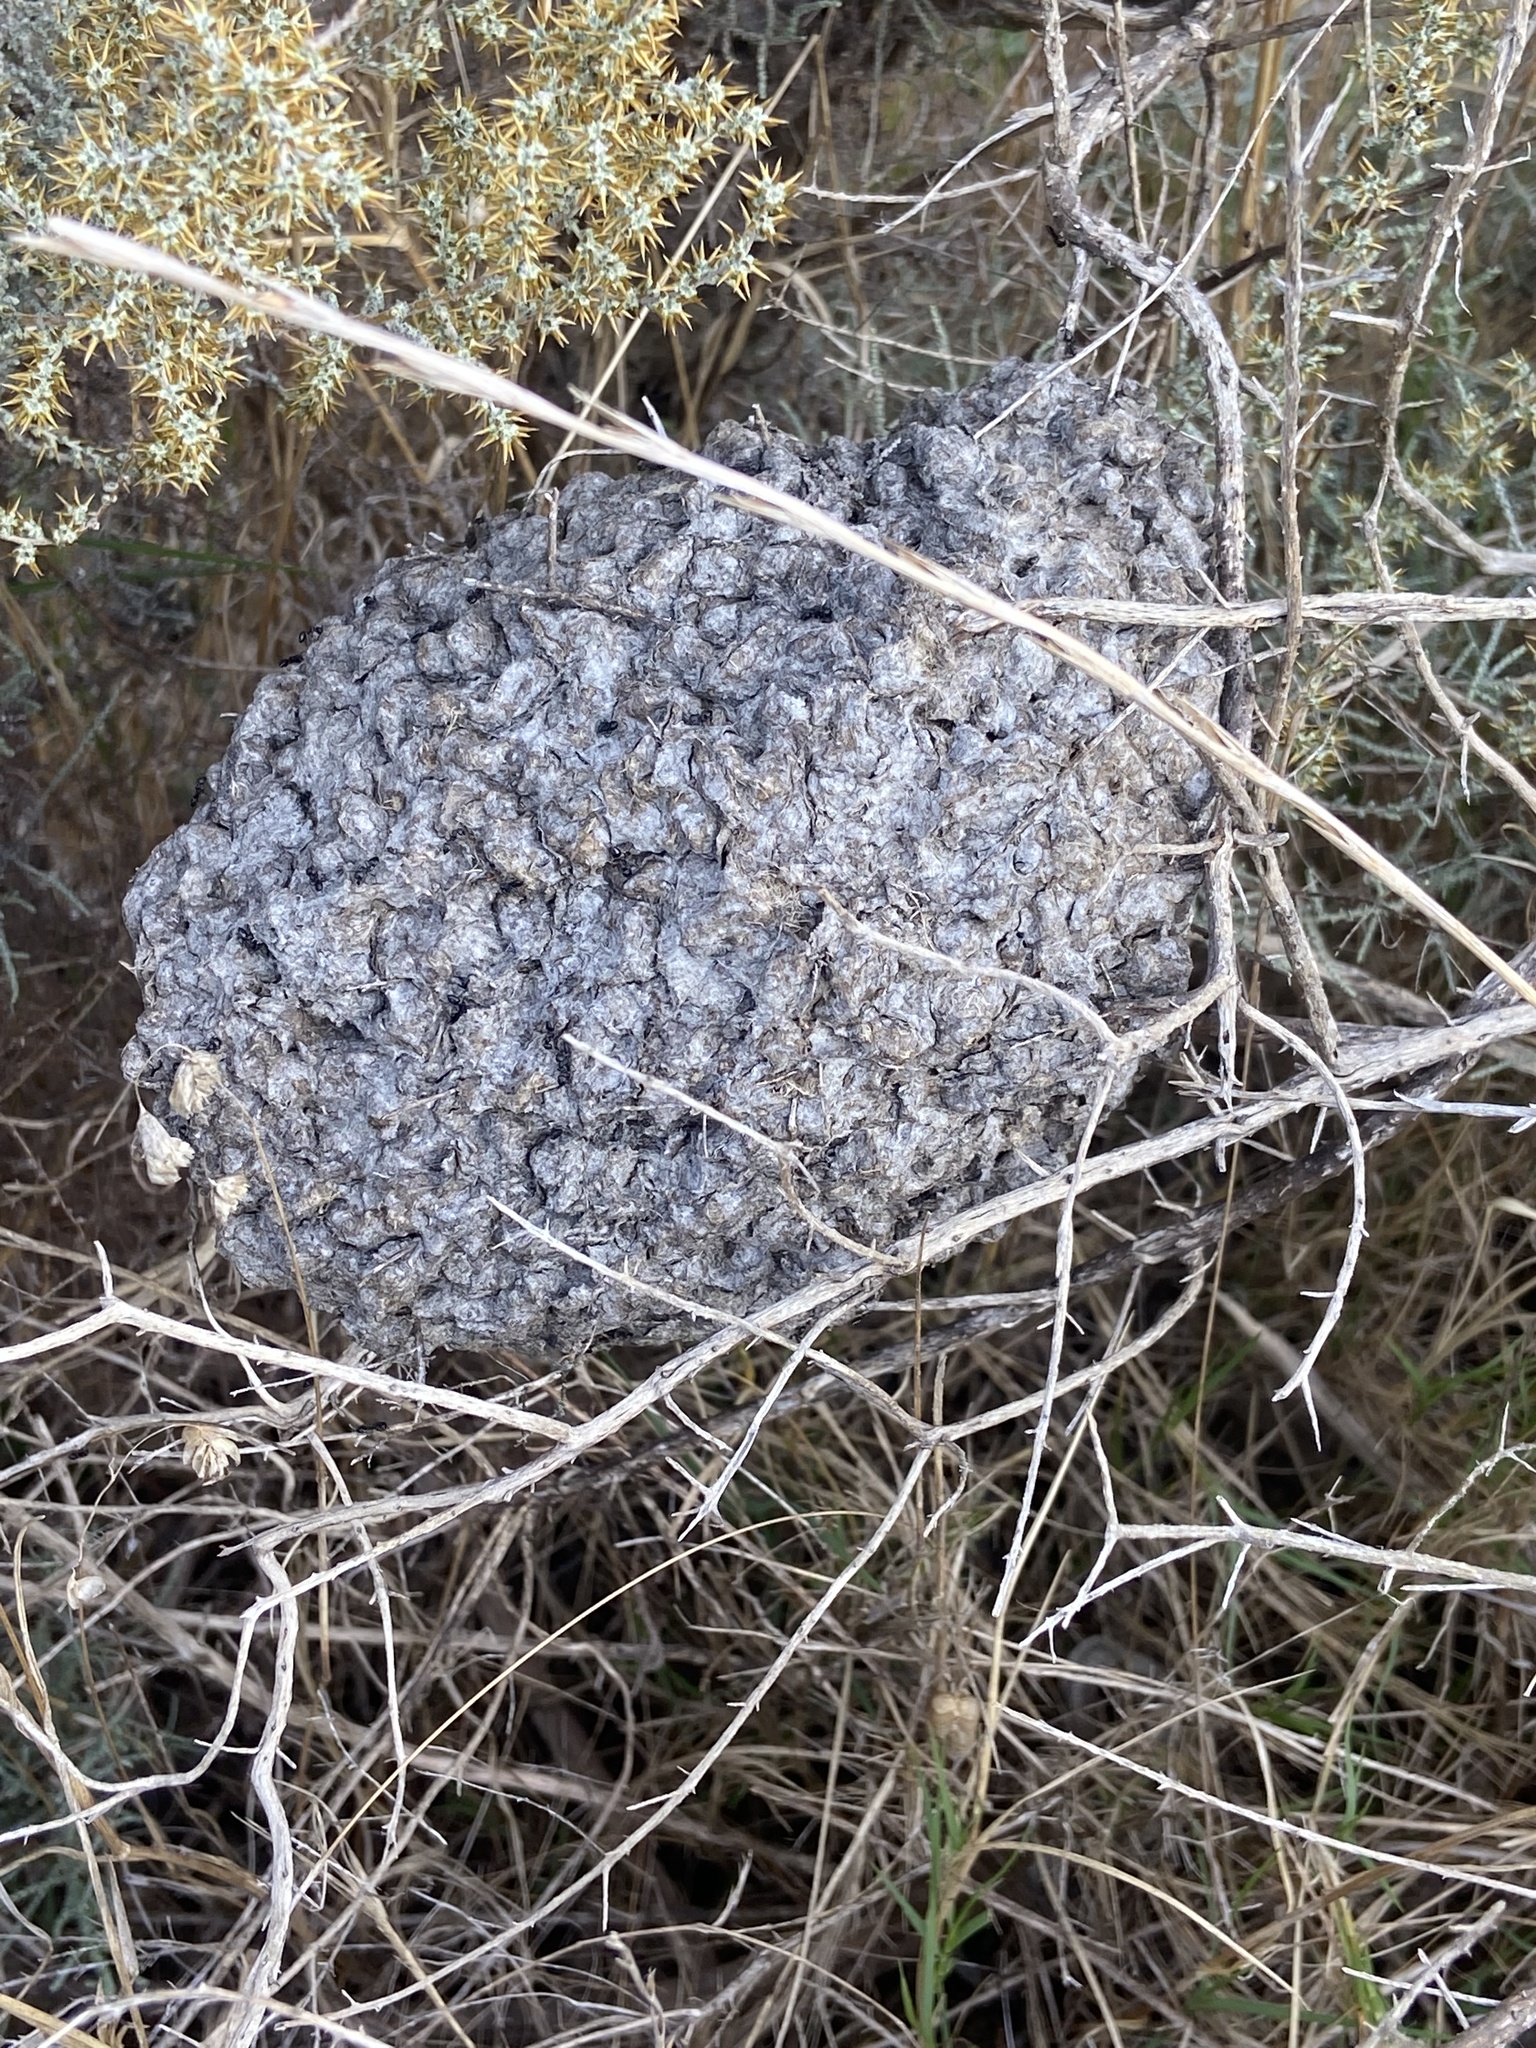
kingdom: Animalia
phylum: Arthropoda
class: Insecta
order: Hymenoptera
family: Formicidae
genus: Crematogaster
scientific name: Crematogaster peringueyi
